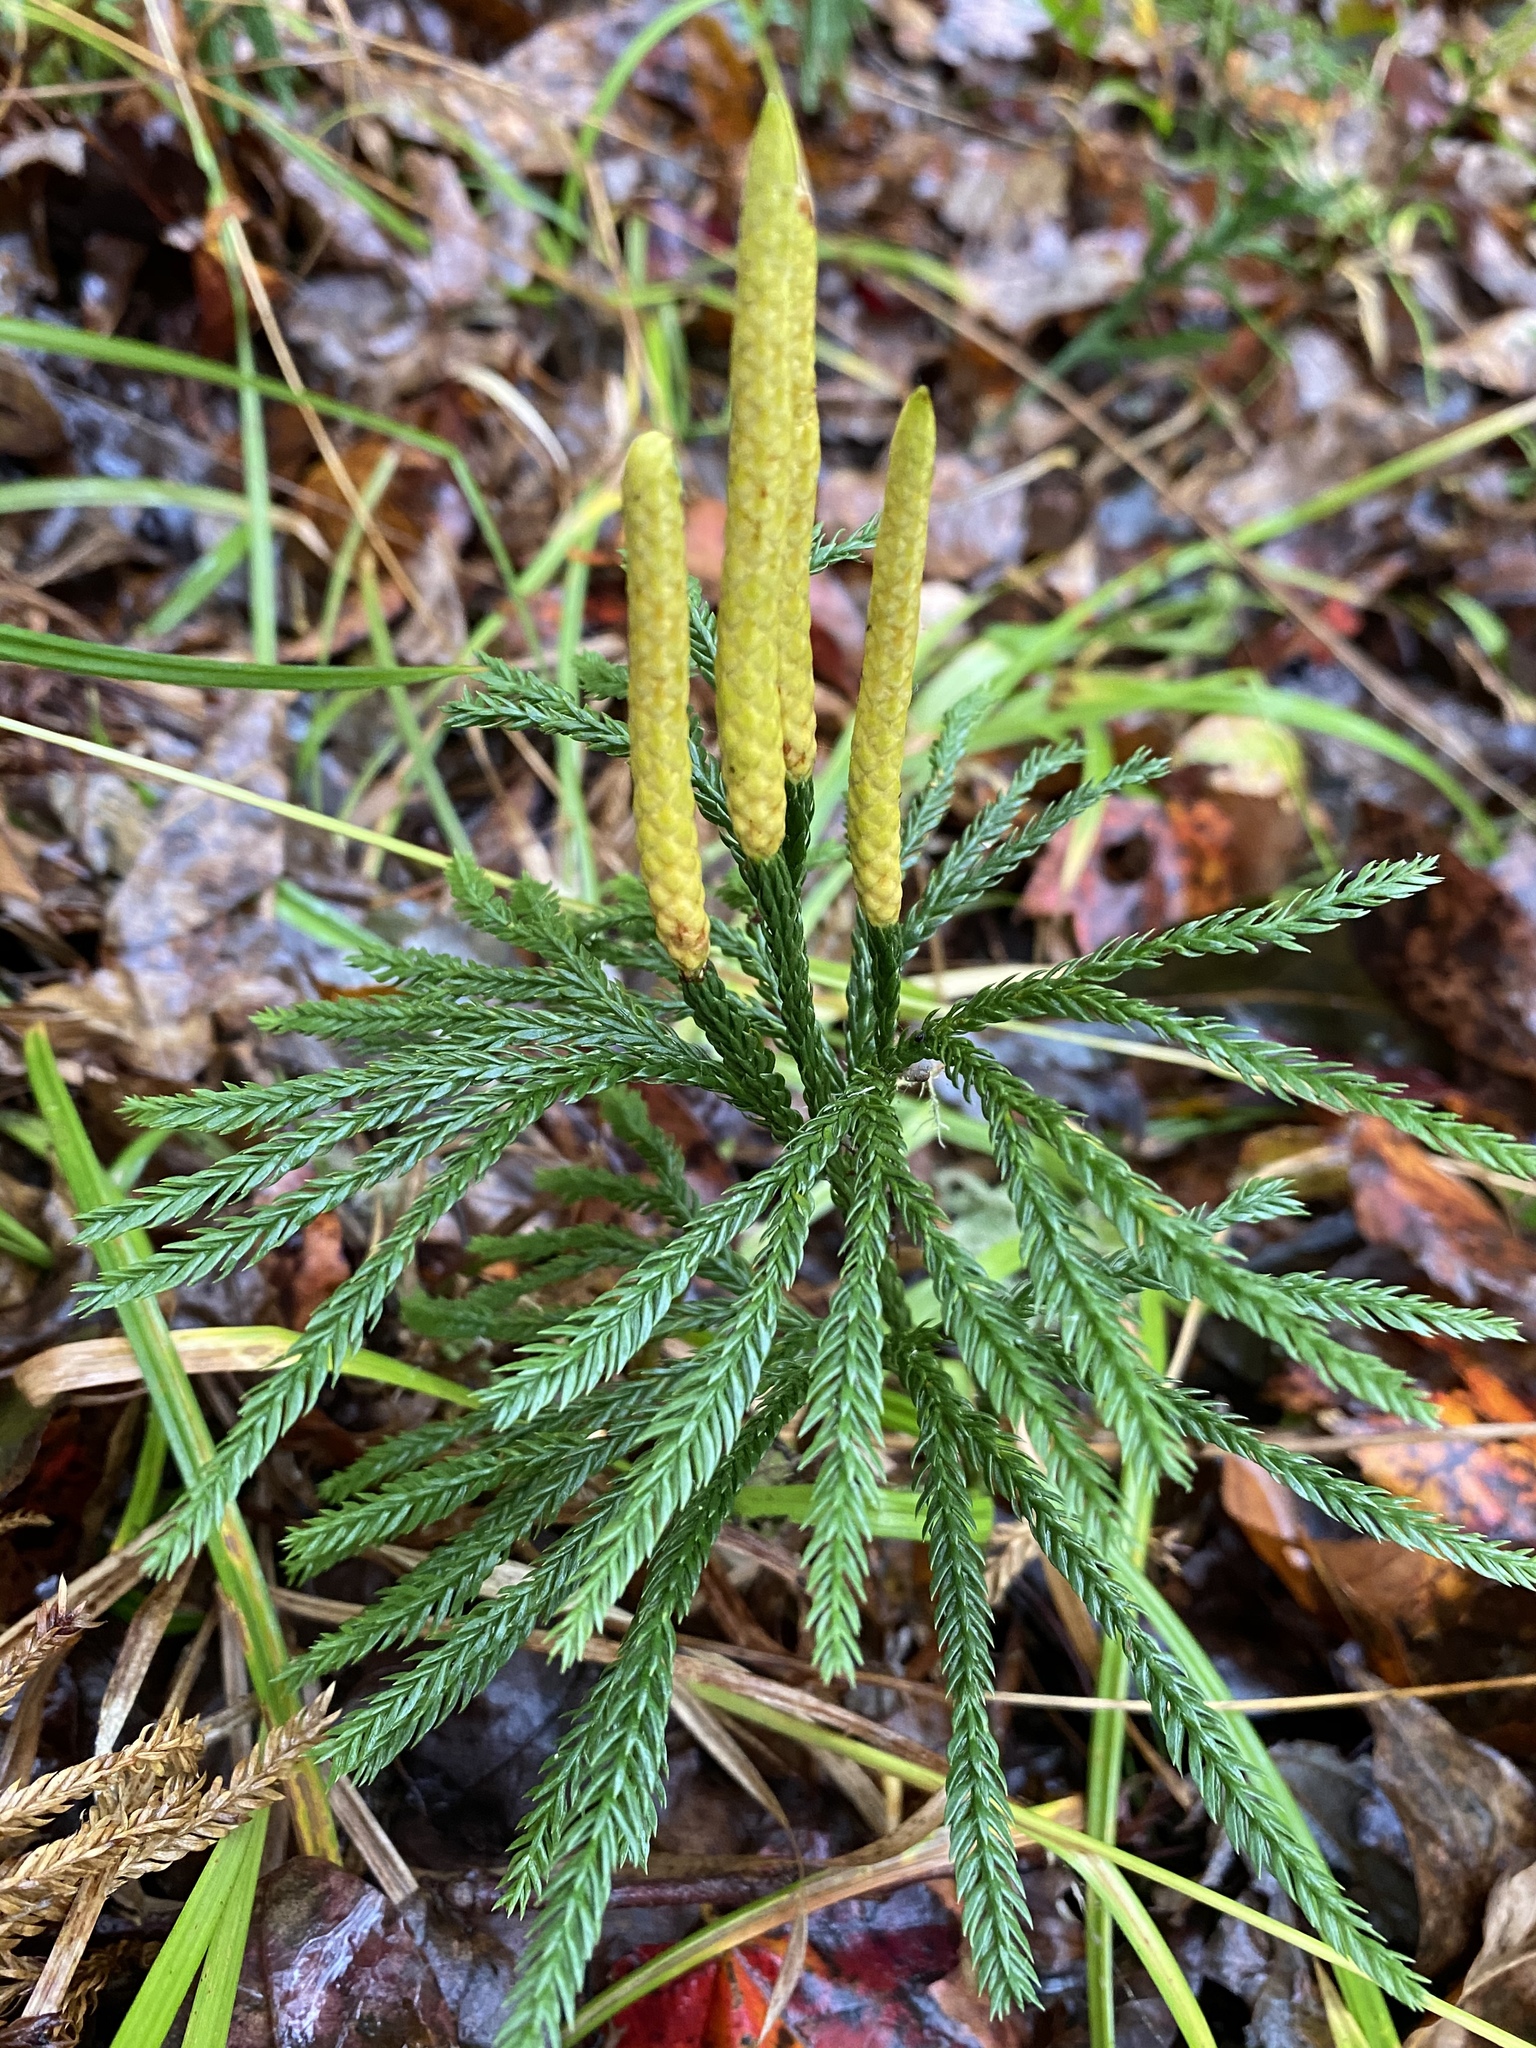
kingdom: Plantae
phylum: Tracheophyta
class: Lycopodiopsida
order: Lycopodiales
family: Lycopodiaceae
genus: Dendrolycopodium
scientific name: Dendrolycopodium obscurum
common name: Common ground-pine
